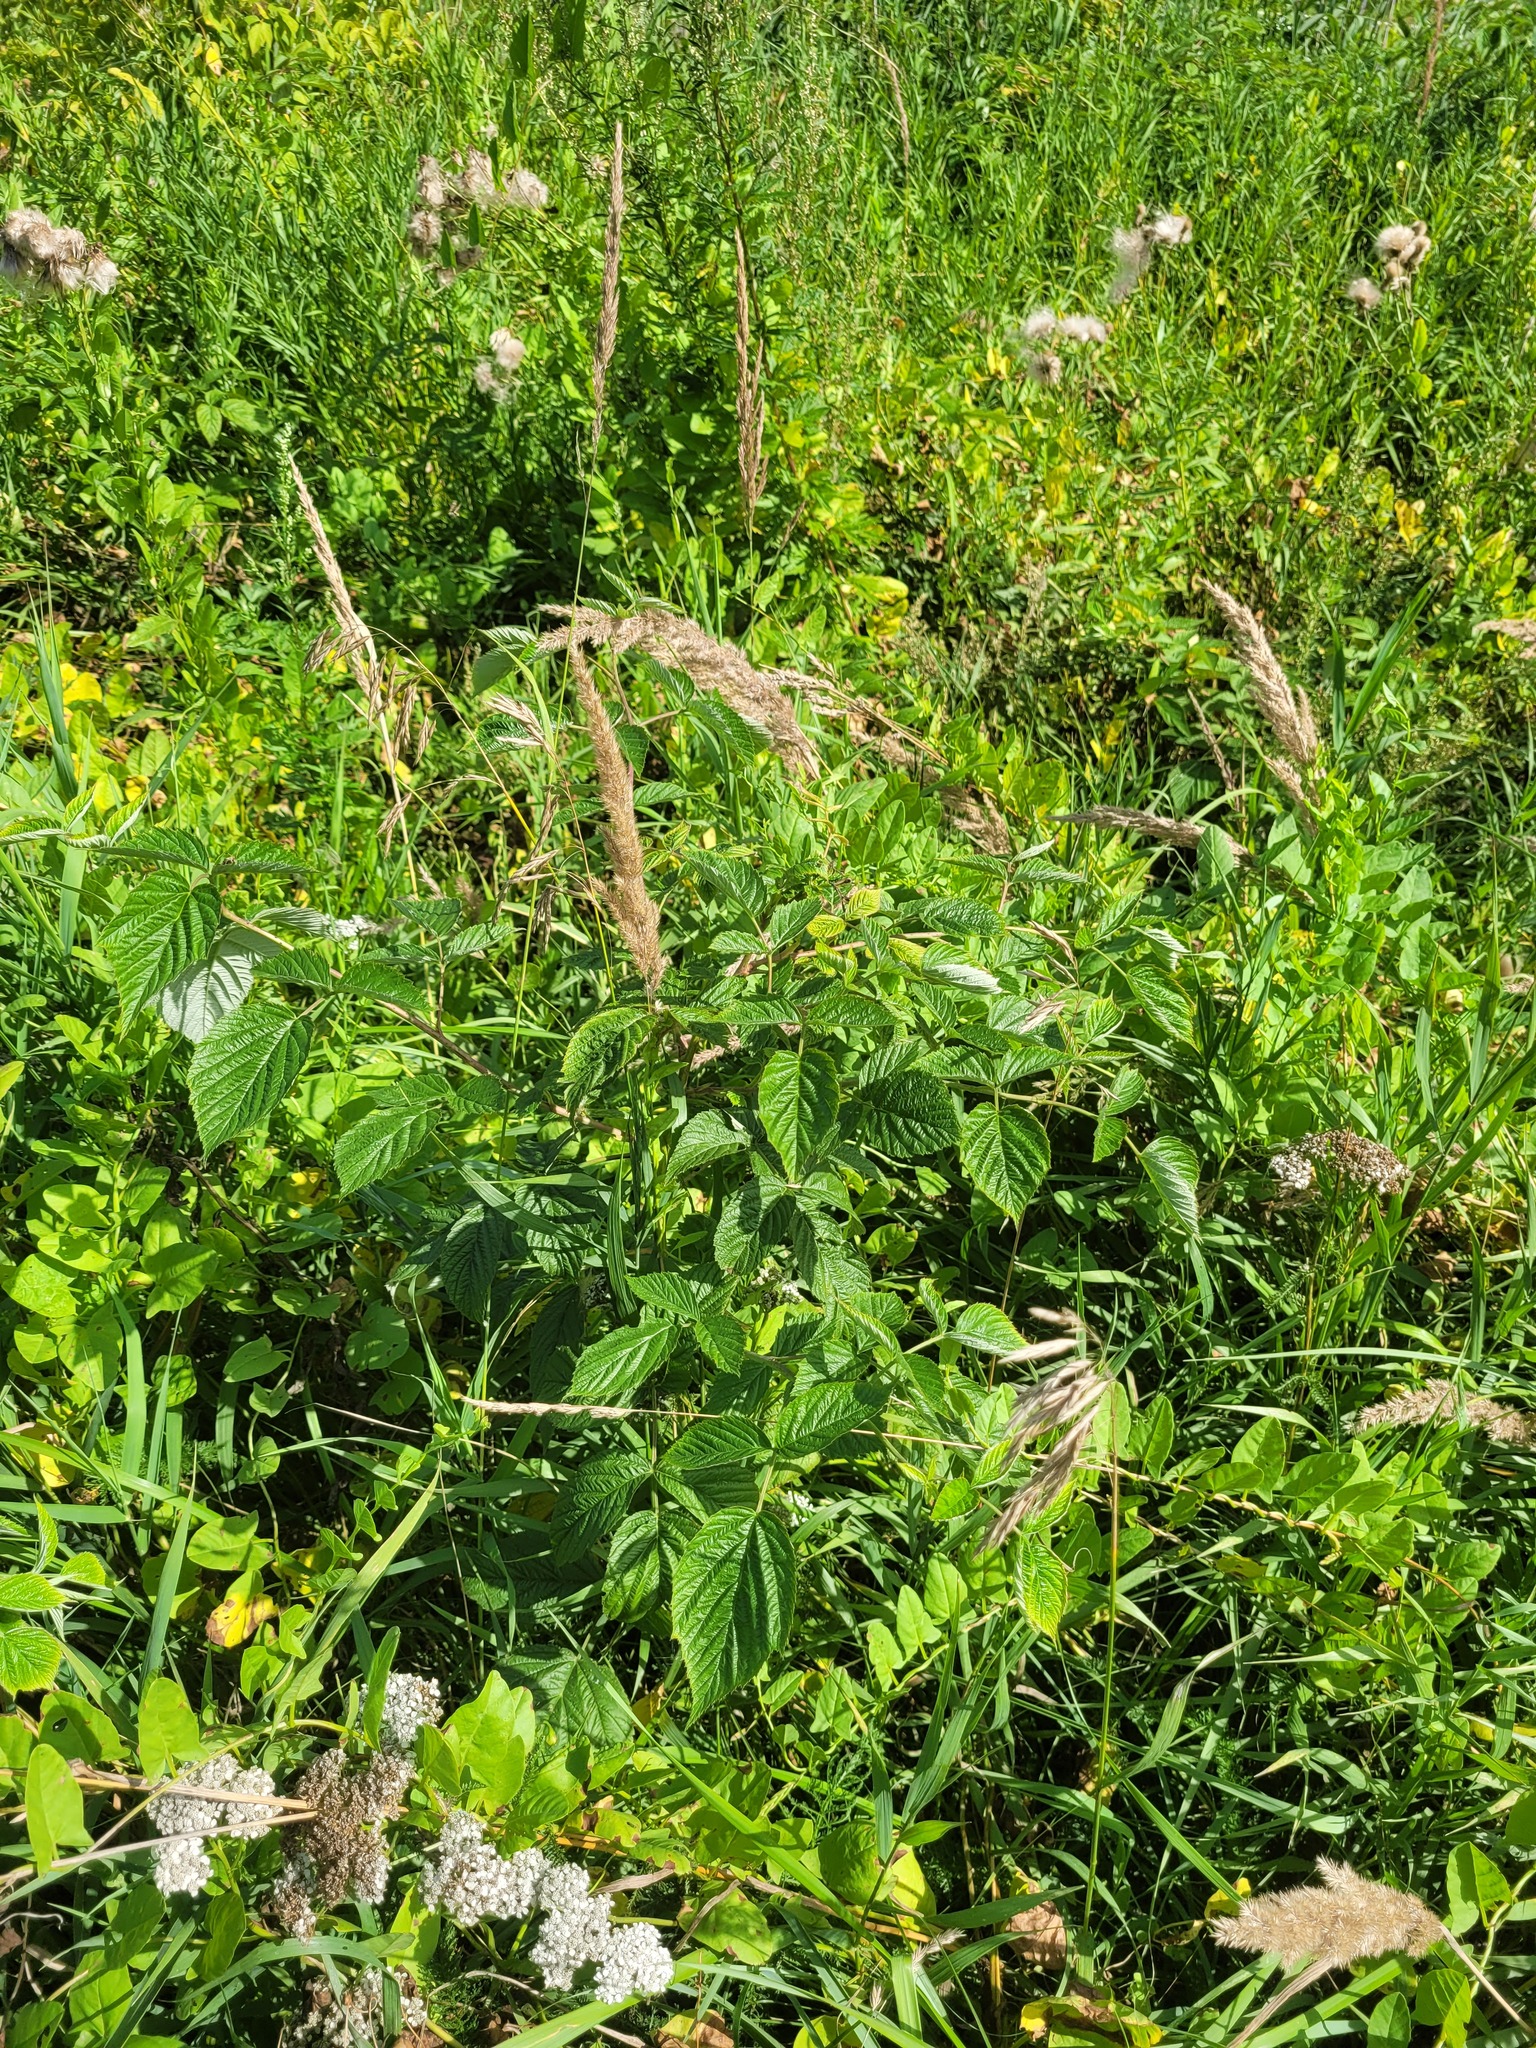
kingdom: Plantae
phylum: Tracheophyta
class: Magnoliopsida
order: Rosales
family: Rosaceae
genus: Rubus
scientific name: Rubus idaeus
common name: Raspberry
